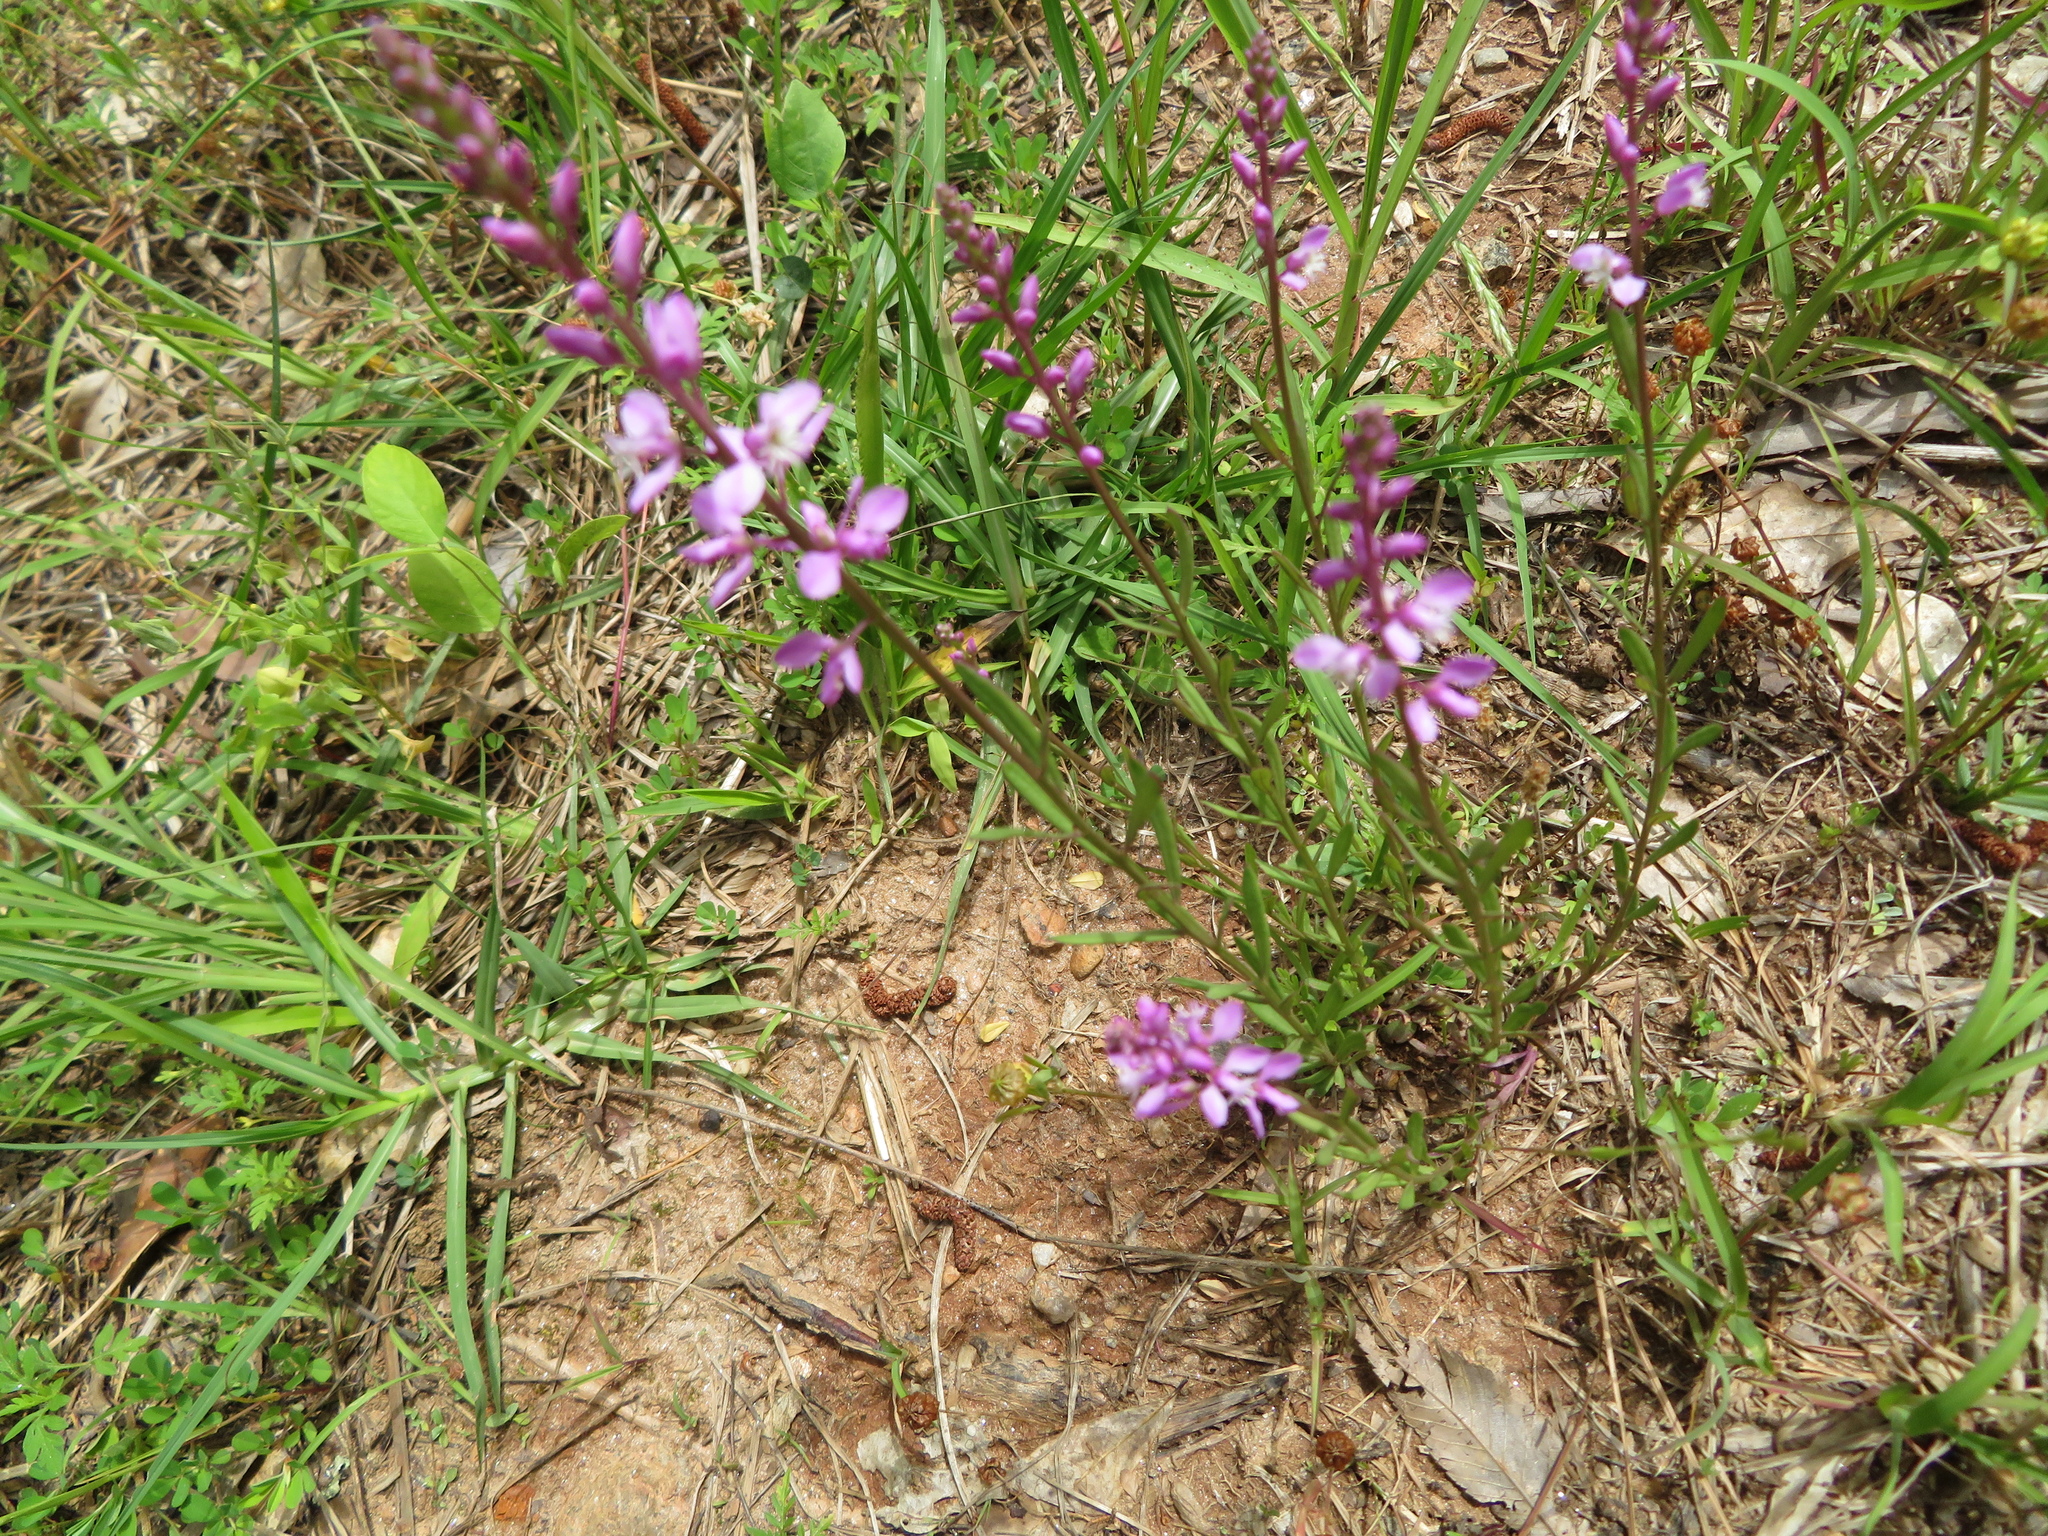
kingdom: Plantae
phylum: Tracheophyta
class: Magnoliopsida
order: Fabales
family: Polygalaceae
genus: Polygala
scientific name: Polygala polygama
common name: Bitter milkwort
